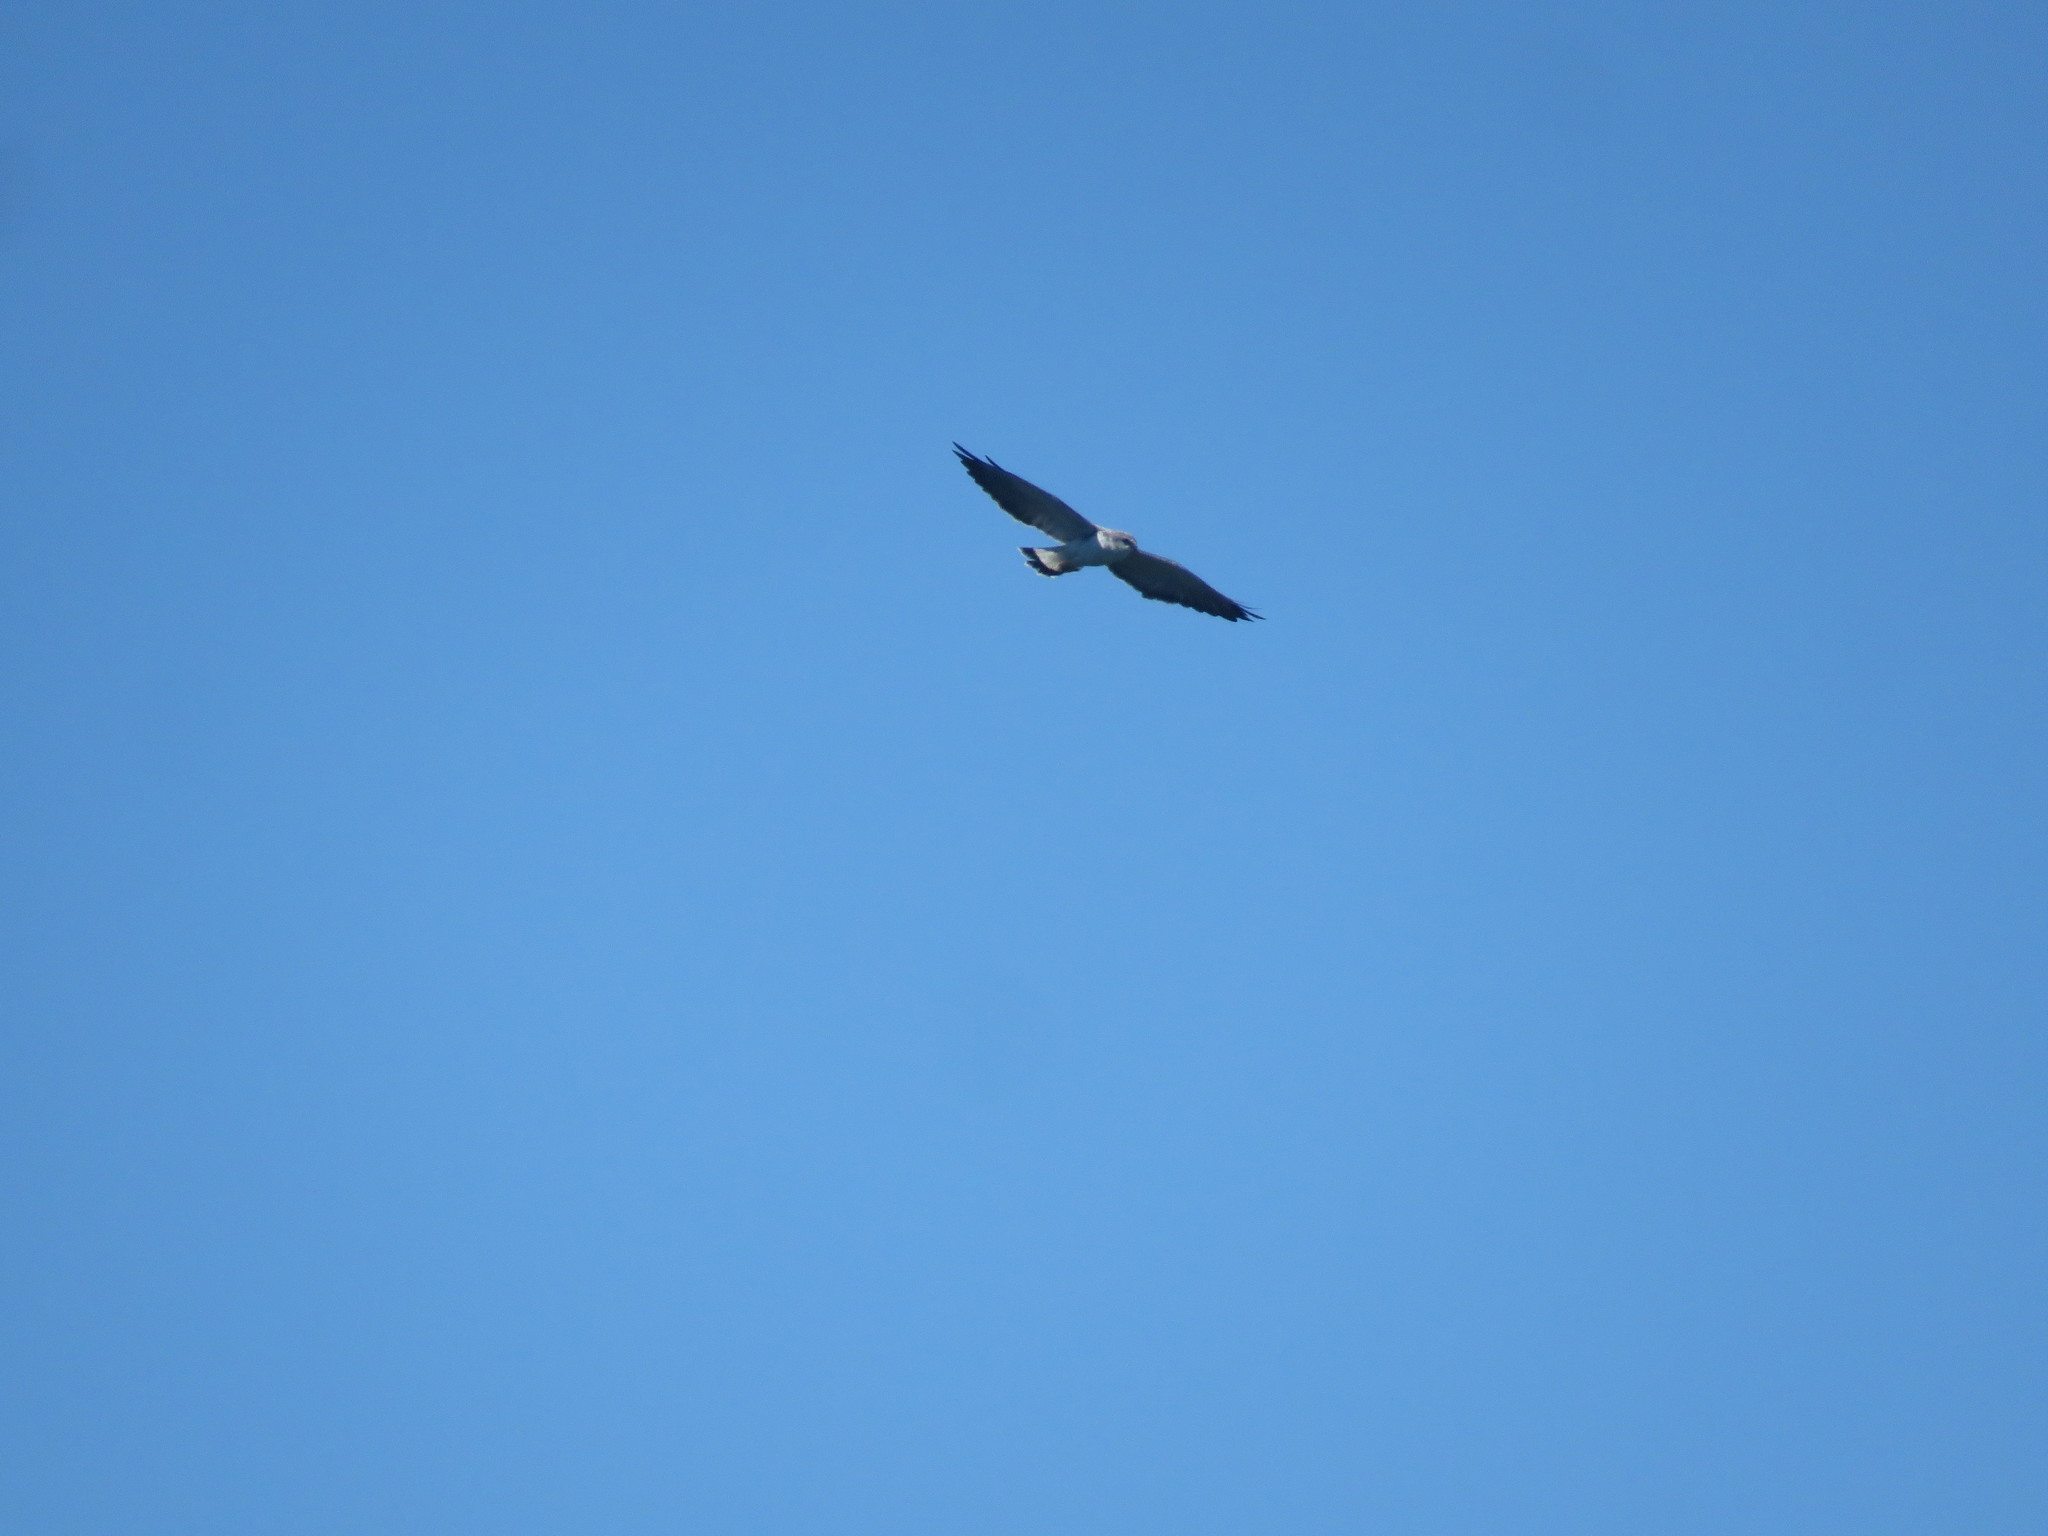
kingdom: Animalia
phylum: Chordata
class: Aves
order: Accipitriformes
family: Accipitridae
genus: Buteo
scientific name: Buteo polyosoma
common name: Variable hawk
